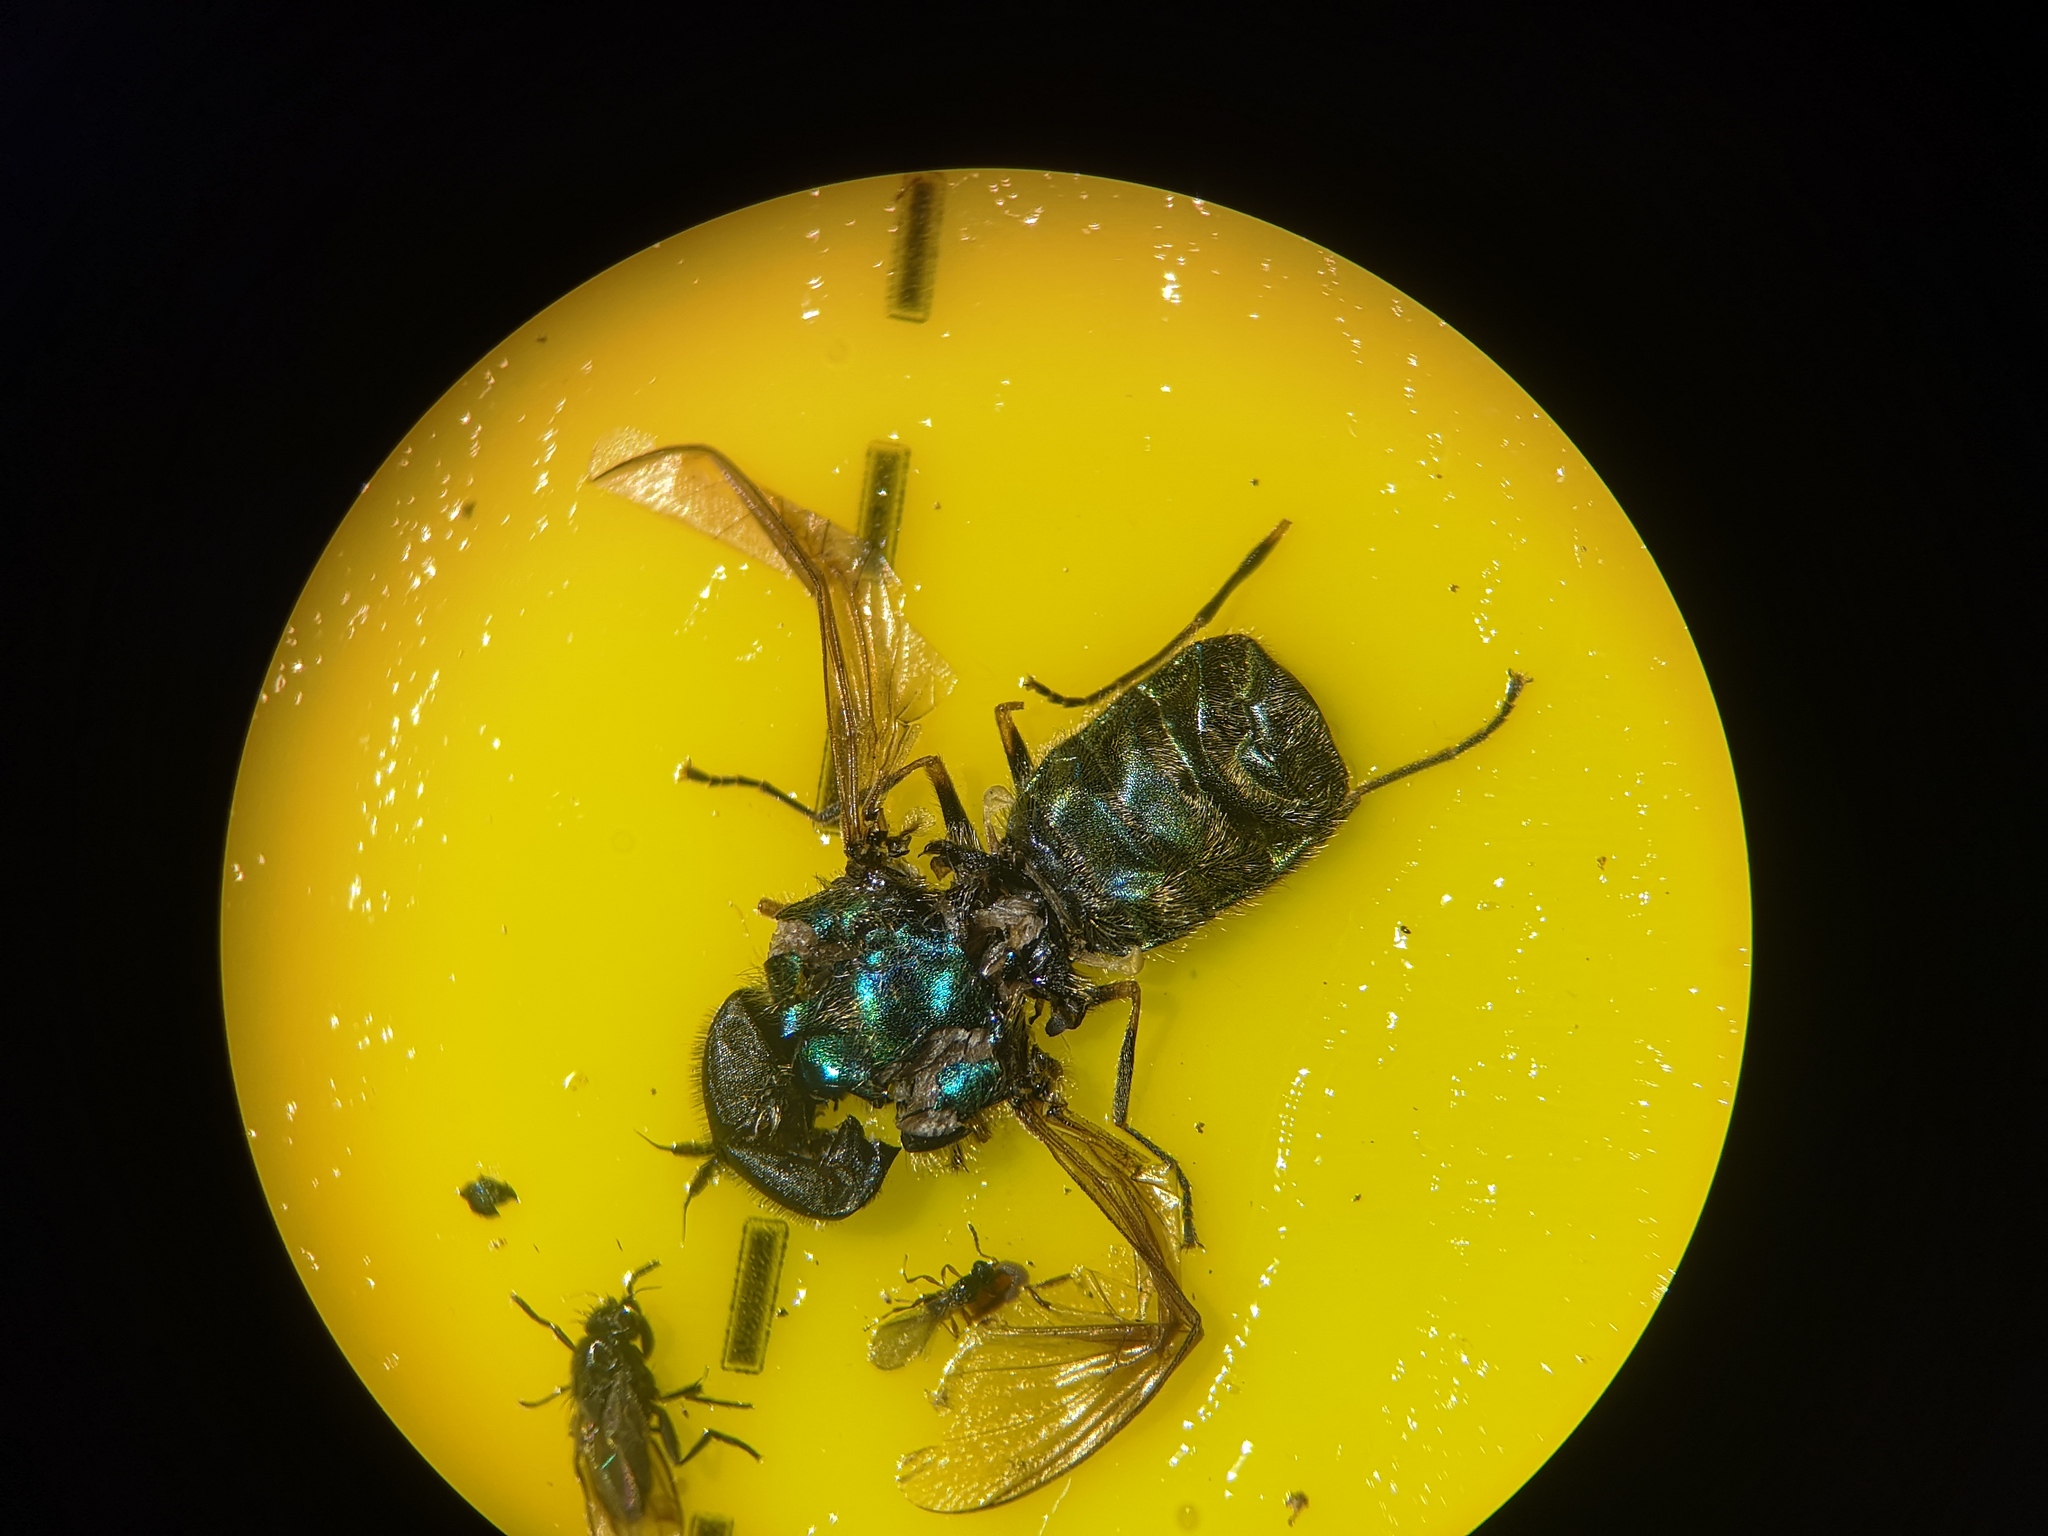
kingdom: Animalia
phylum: Arthropoda
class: Insecta
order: Diptera
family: Stratiomyidae
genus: Chloromyia
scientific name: Chloromyia formosa
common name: Soldier fly
